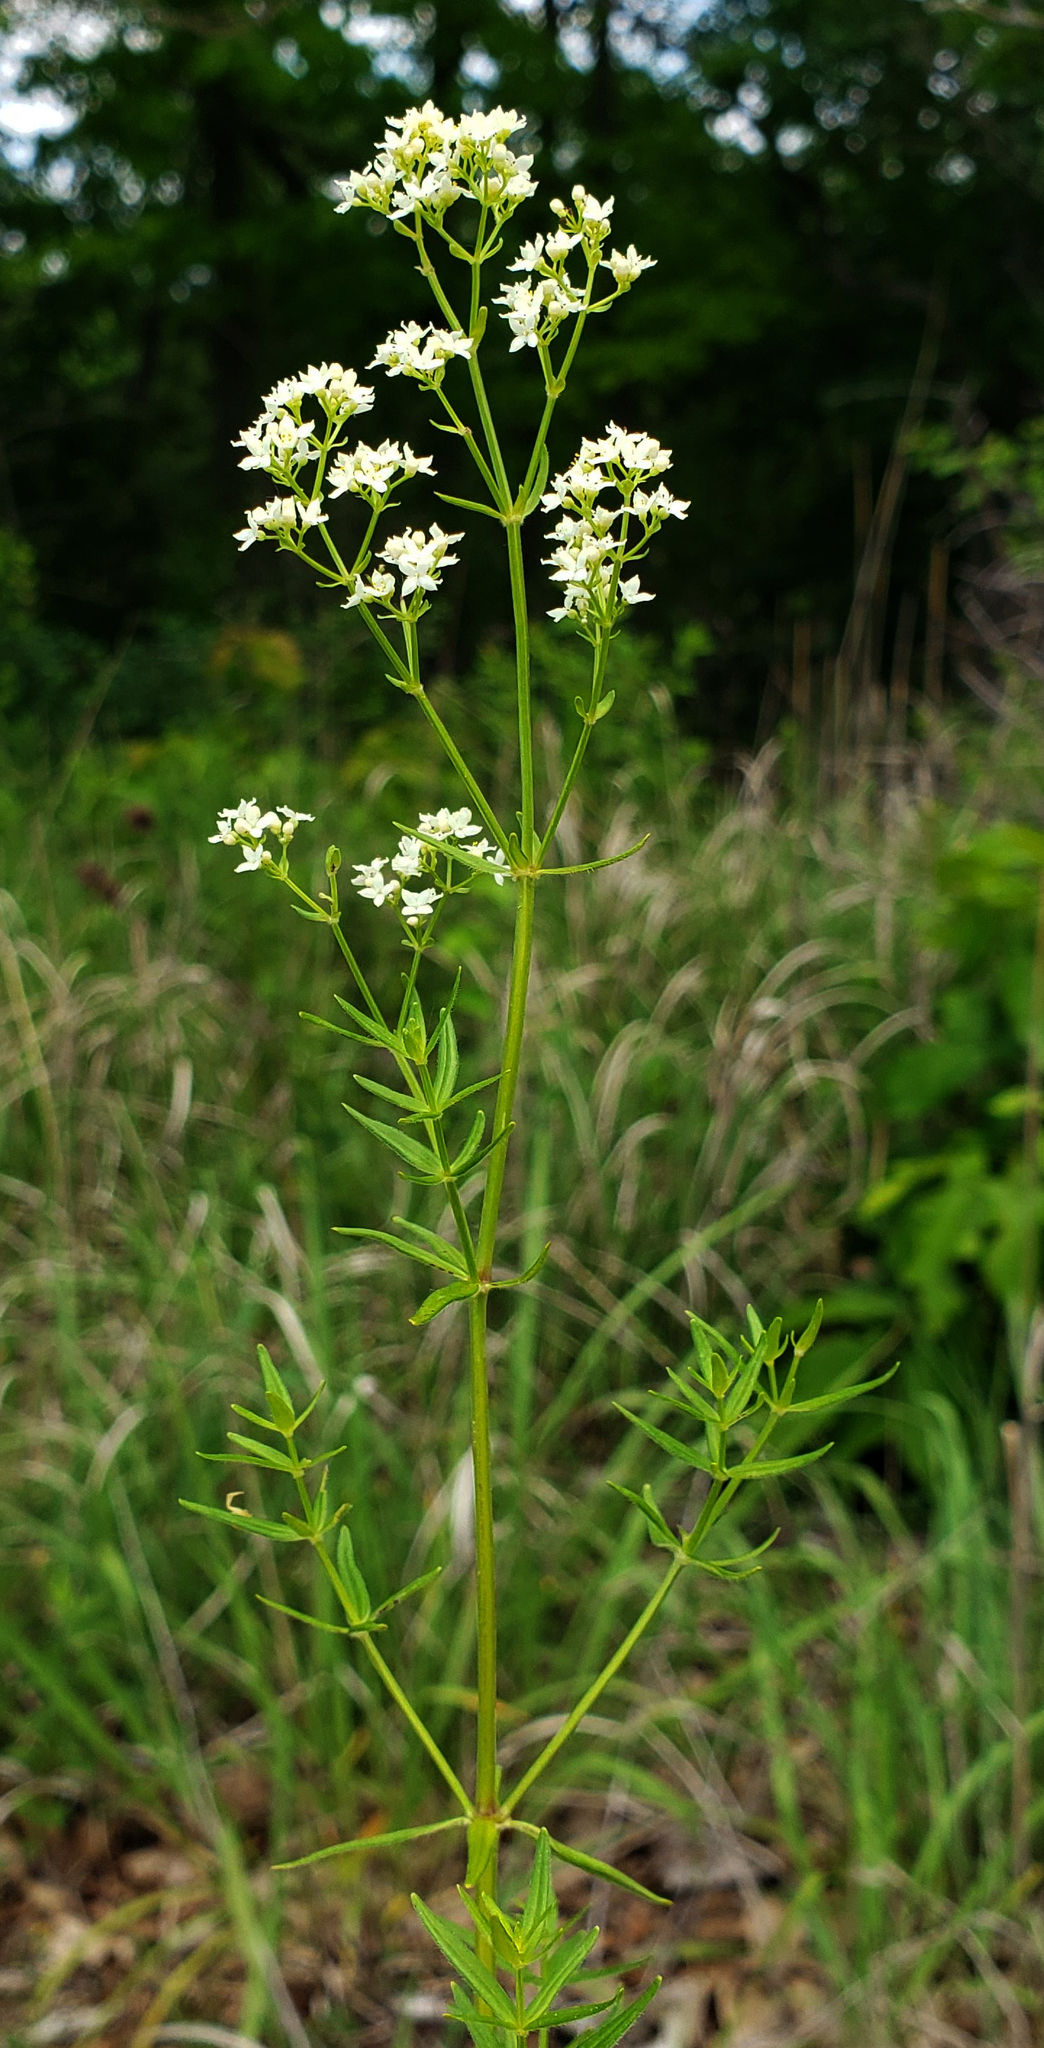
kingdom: Plantae
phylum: Tracheophyta
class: Magnoliopsida
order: Gentianales
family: Rubiaceae
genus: Galium
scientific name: Galium boreale
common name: Northern bedstraw
